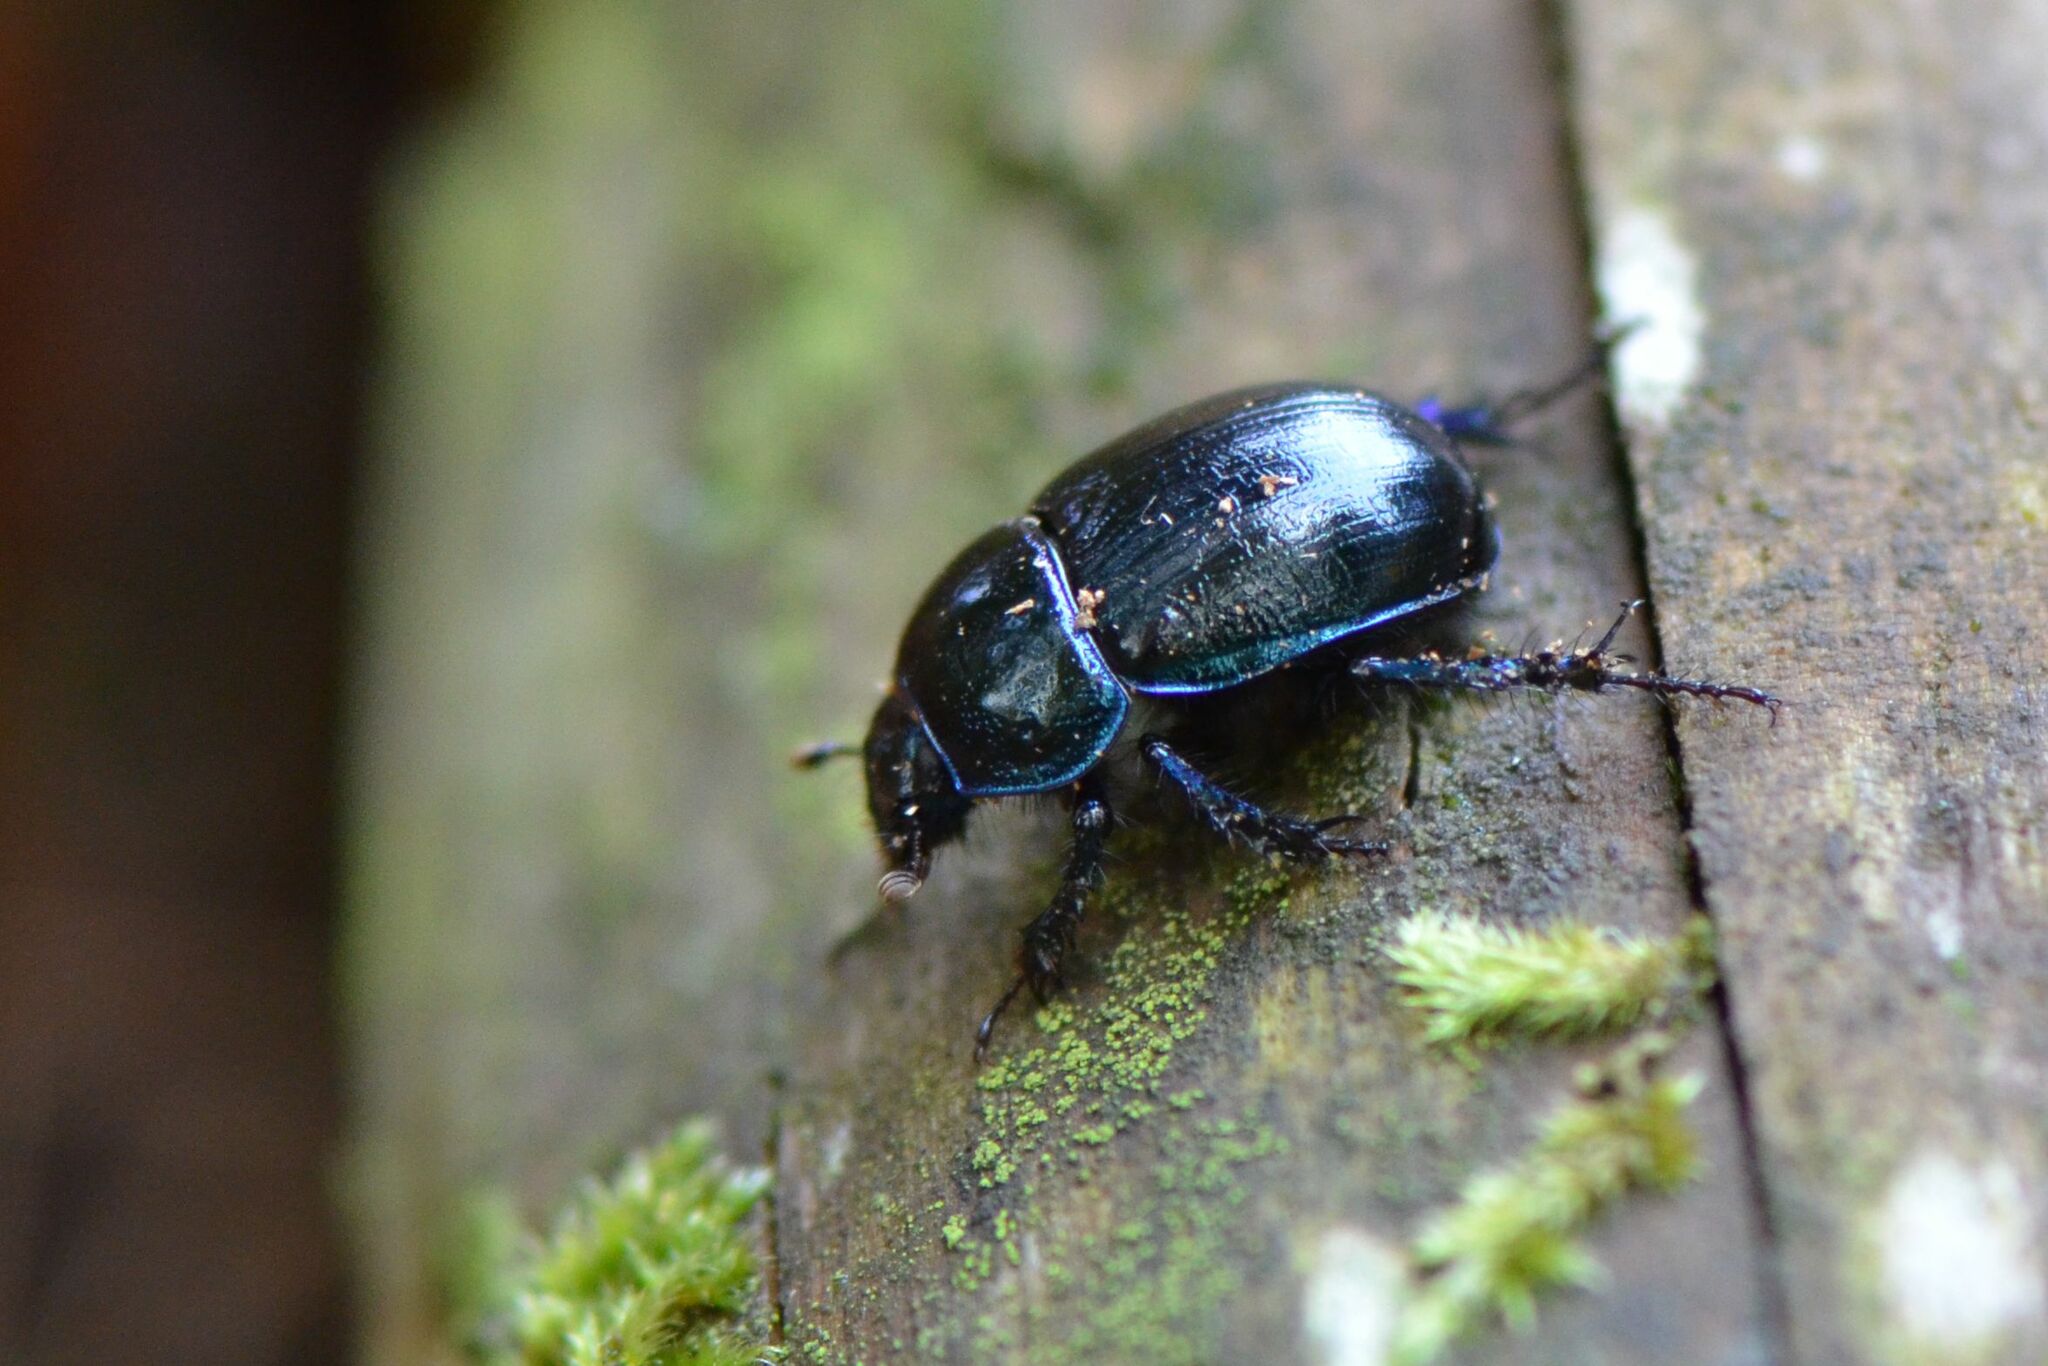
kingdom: Animalia
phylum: Arthropoda
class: Insecta
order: Coleoptera
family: Geotrupidae
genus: Anoplotrupes
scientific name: Anoplotrupes stercorosus
